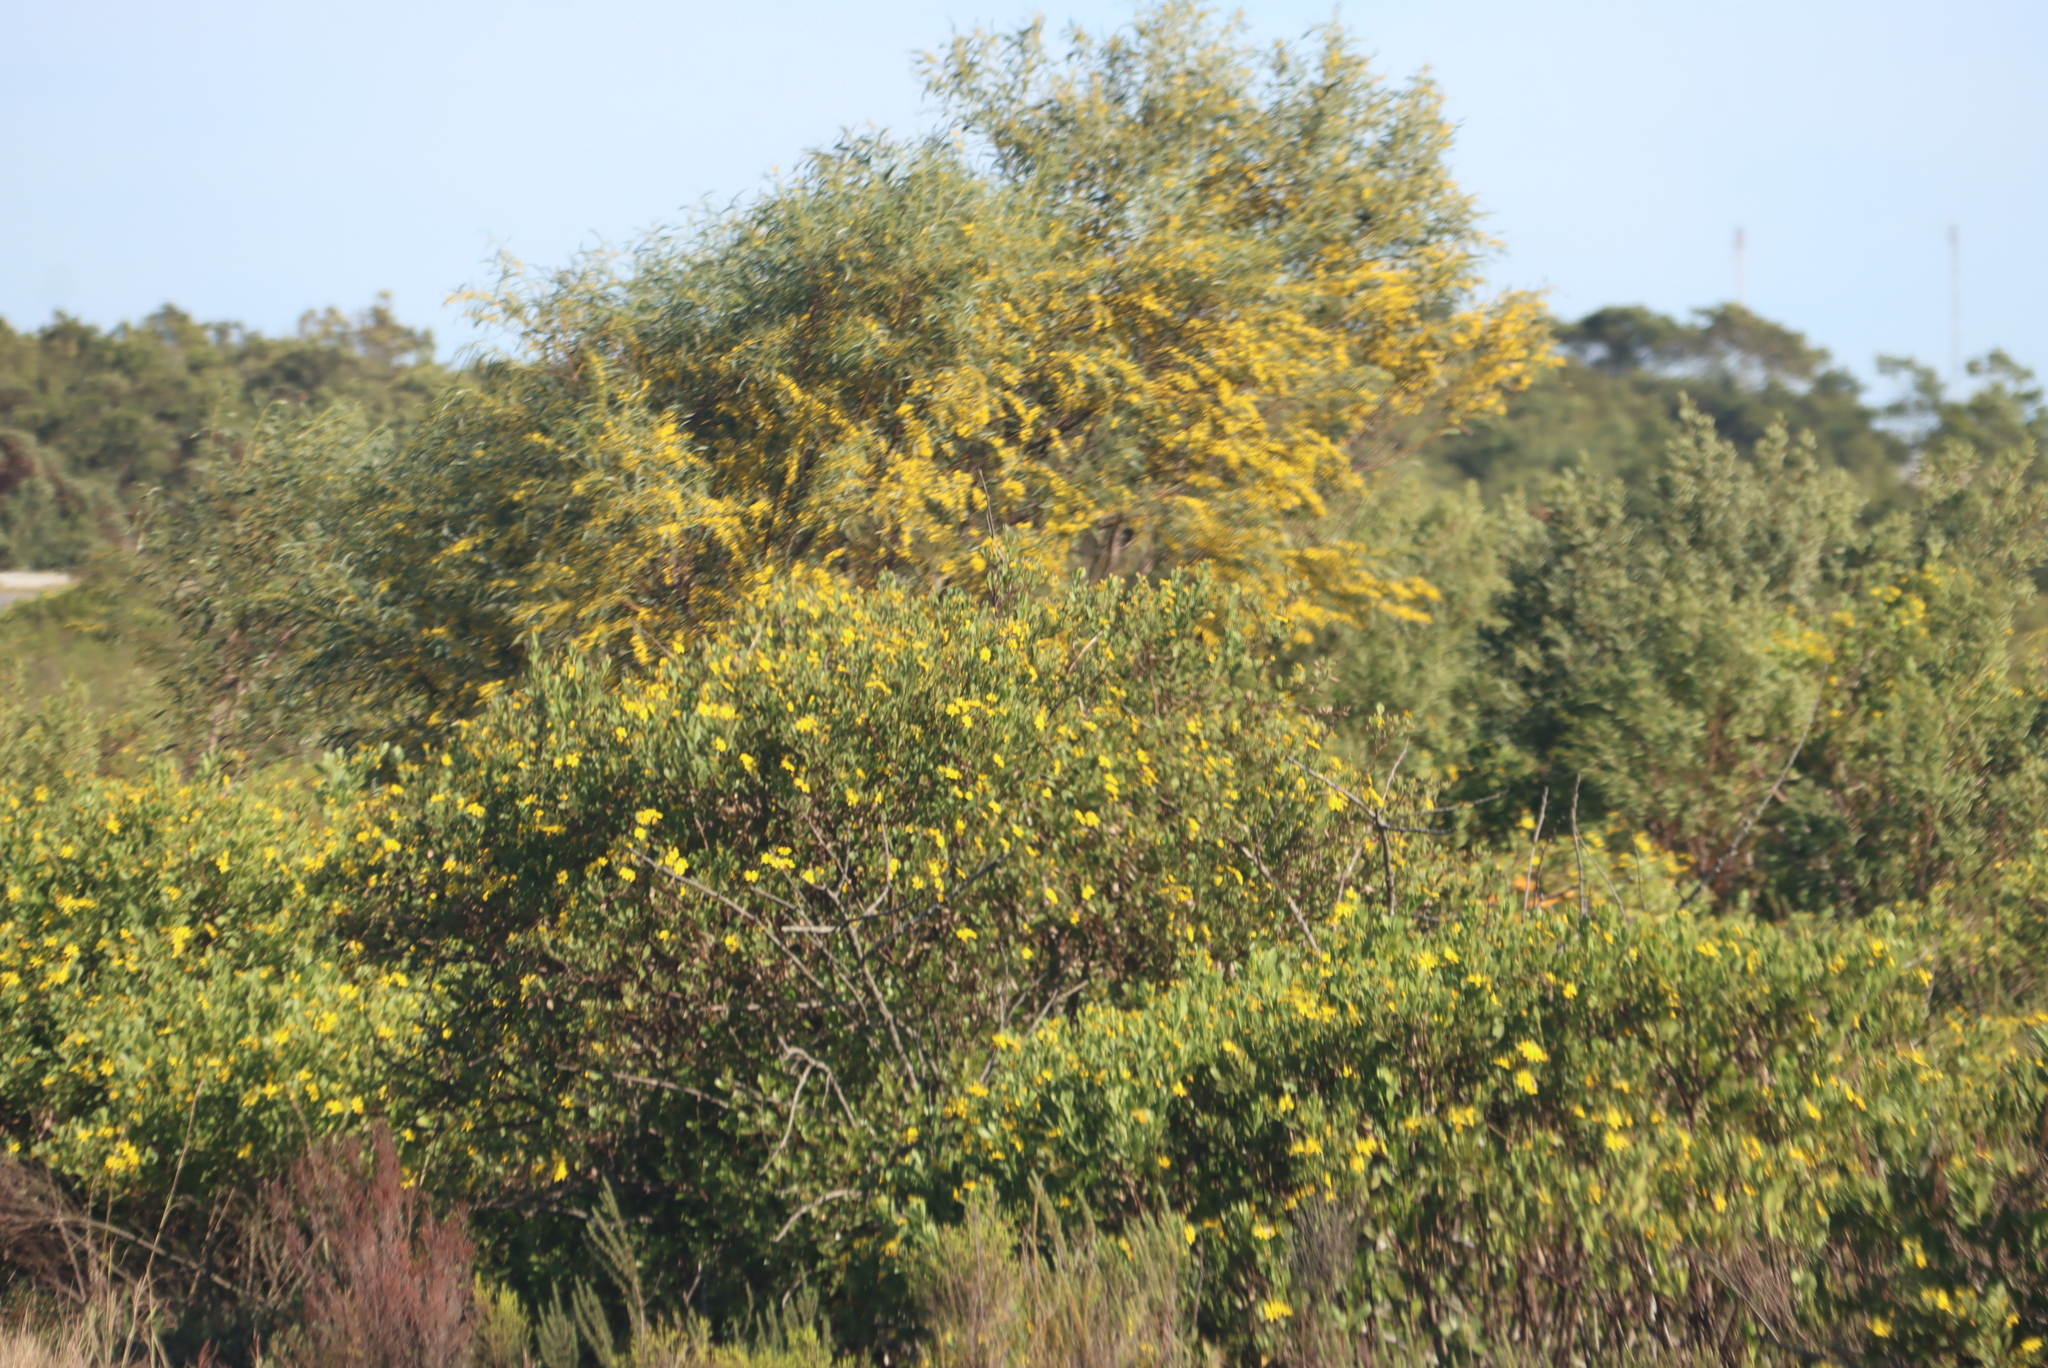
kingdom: Plantae
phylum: Tracheophyta
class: Magnoliopsida
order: Fabales
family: Fabaceae
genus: Acacia
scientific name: Acacia saligna
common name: Orange wattle
